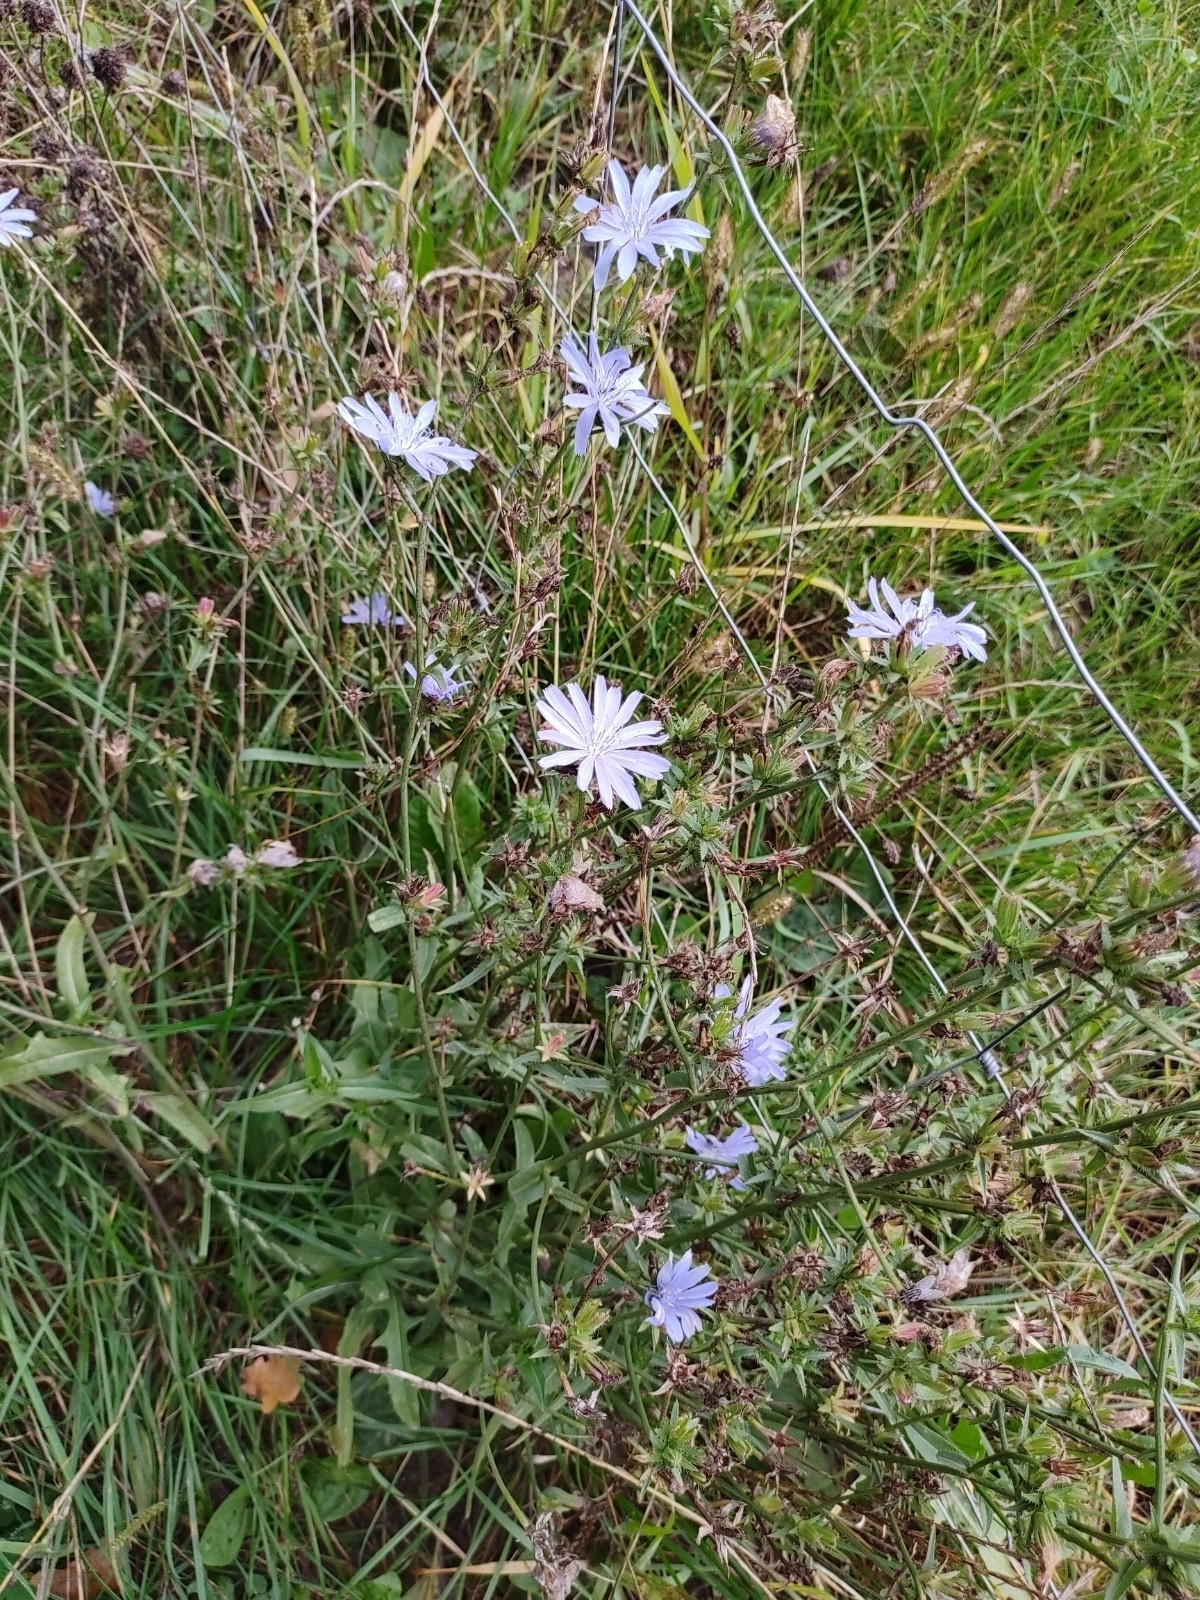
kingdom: Plantae
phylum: Tracheophyta
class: Magnoliopsida
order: Asterales
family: Asteraceae
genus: Cichorium
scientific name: Cichorium intybus
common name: Chicory
